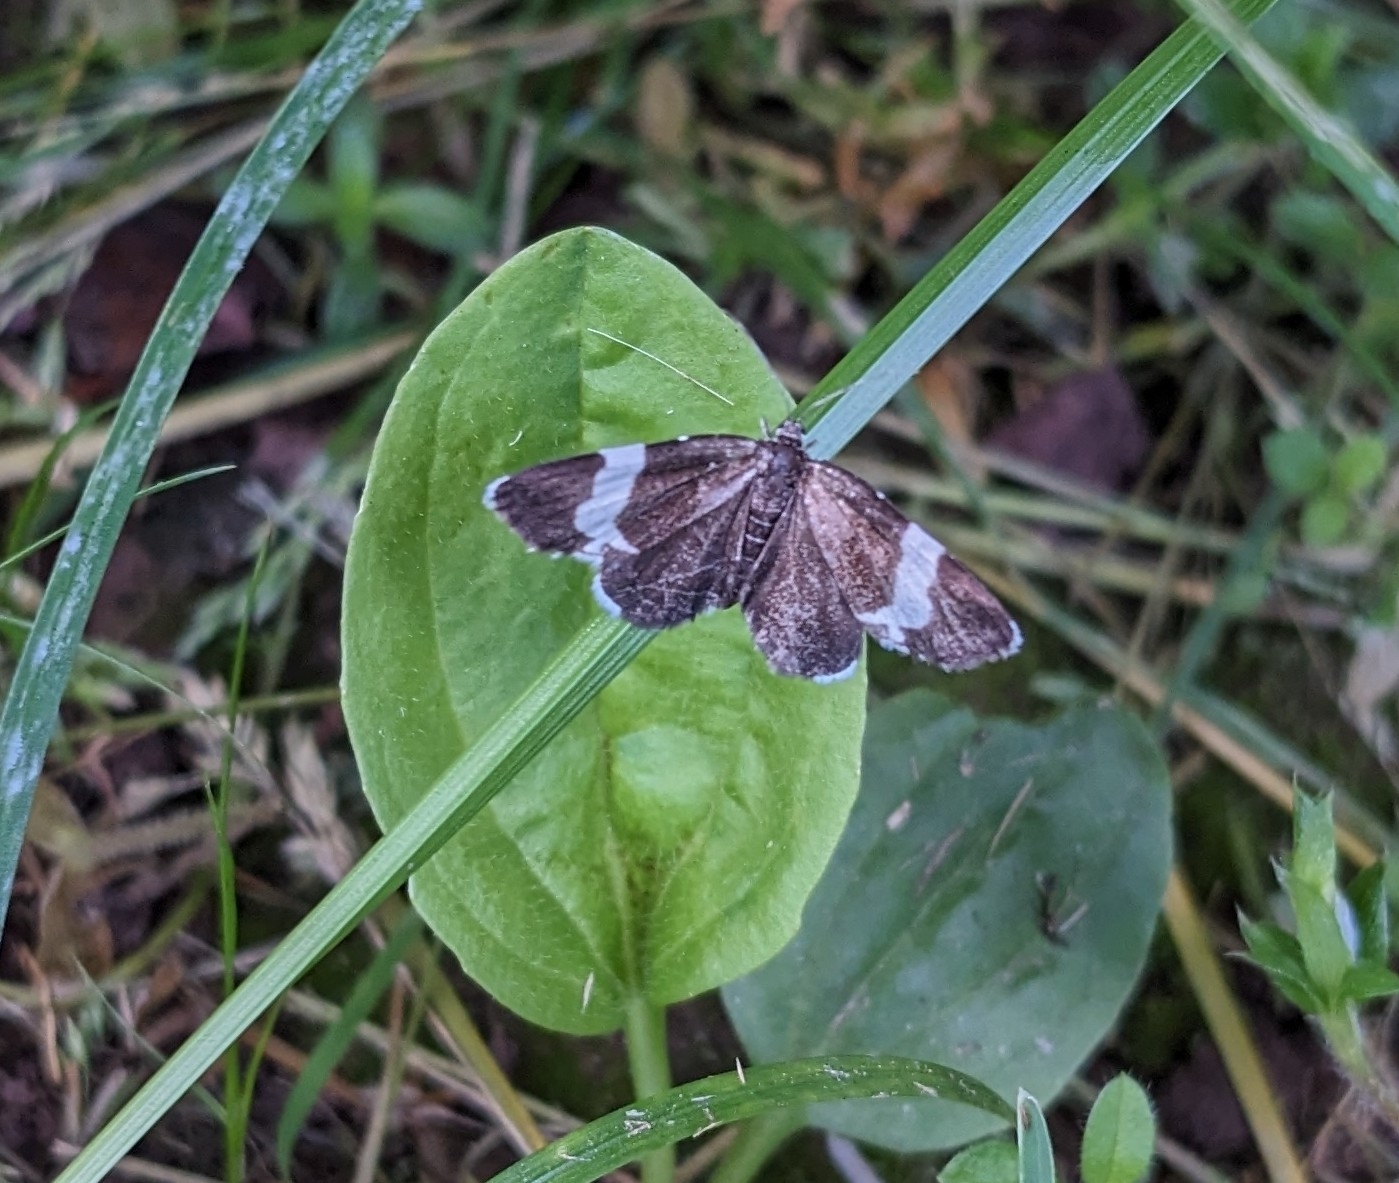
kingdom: Animalia
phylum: Arthropoda
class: Insecta
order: Lepidoptera
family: Geometridae
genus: Trichodezia
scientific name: Trichodezia albovittata
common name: White striped black
